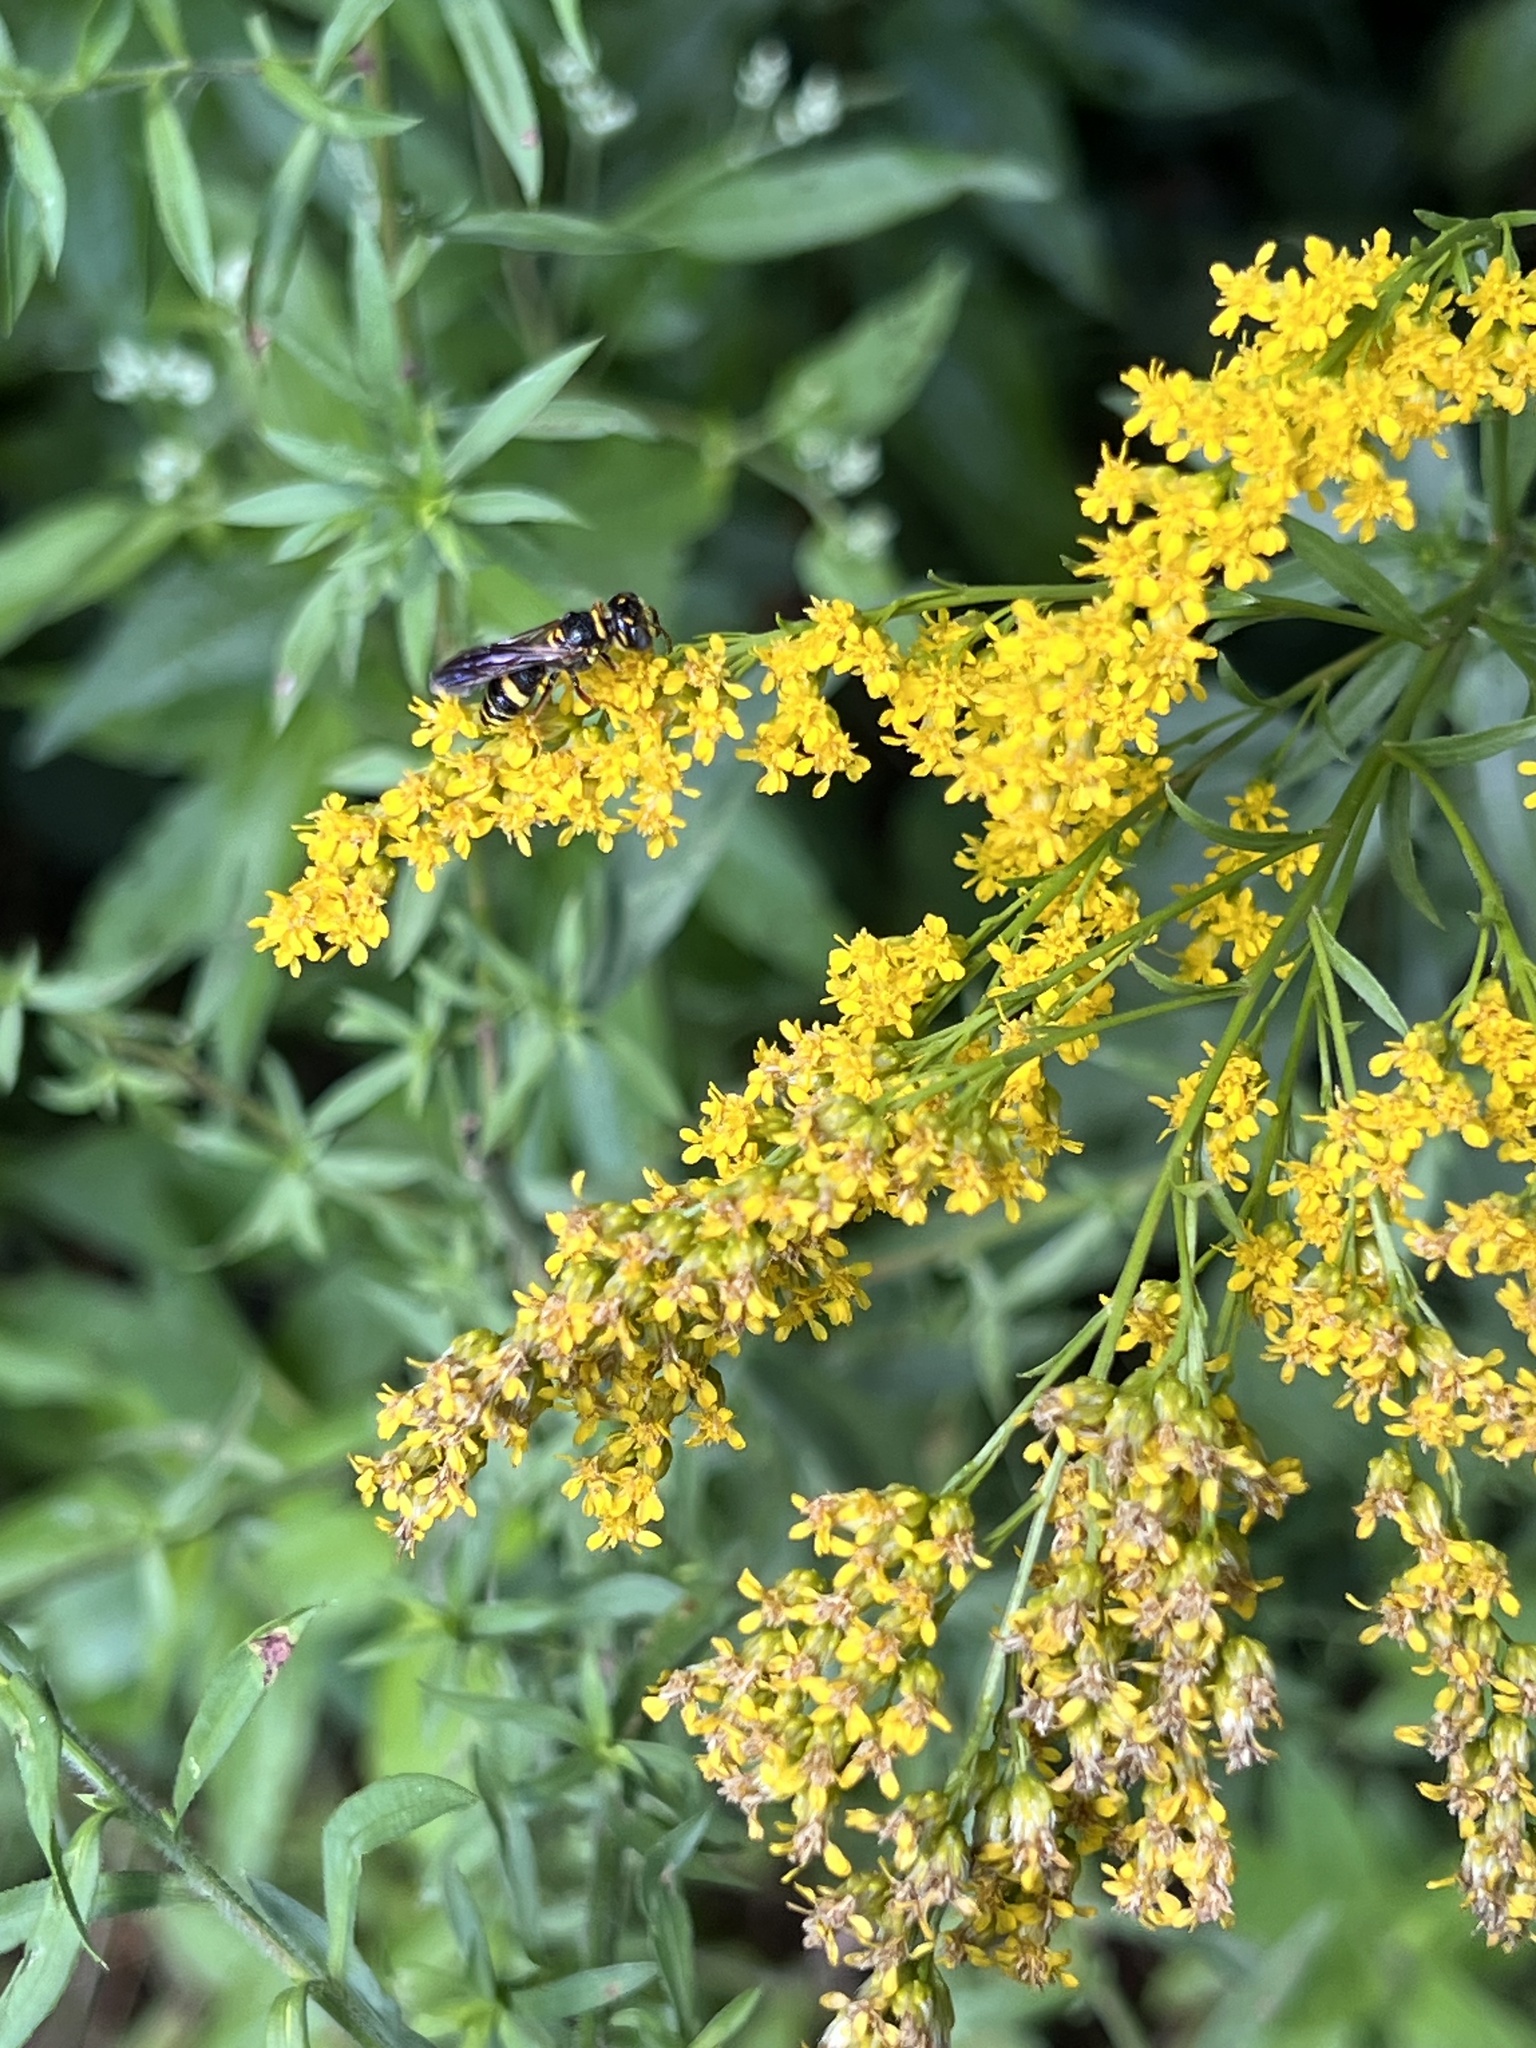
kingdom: Animalia
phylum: Arthropoda
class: Insecta
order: Hymenoptera
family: Crabronidae
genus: Philanthus
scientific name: Philanthus gibbosus
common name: Humped beewolf
